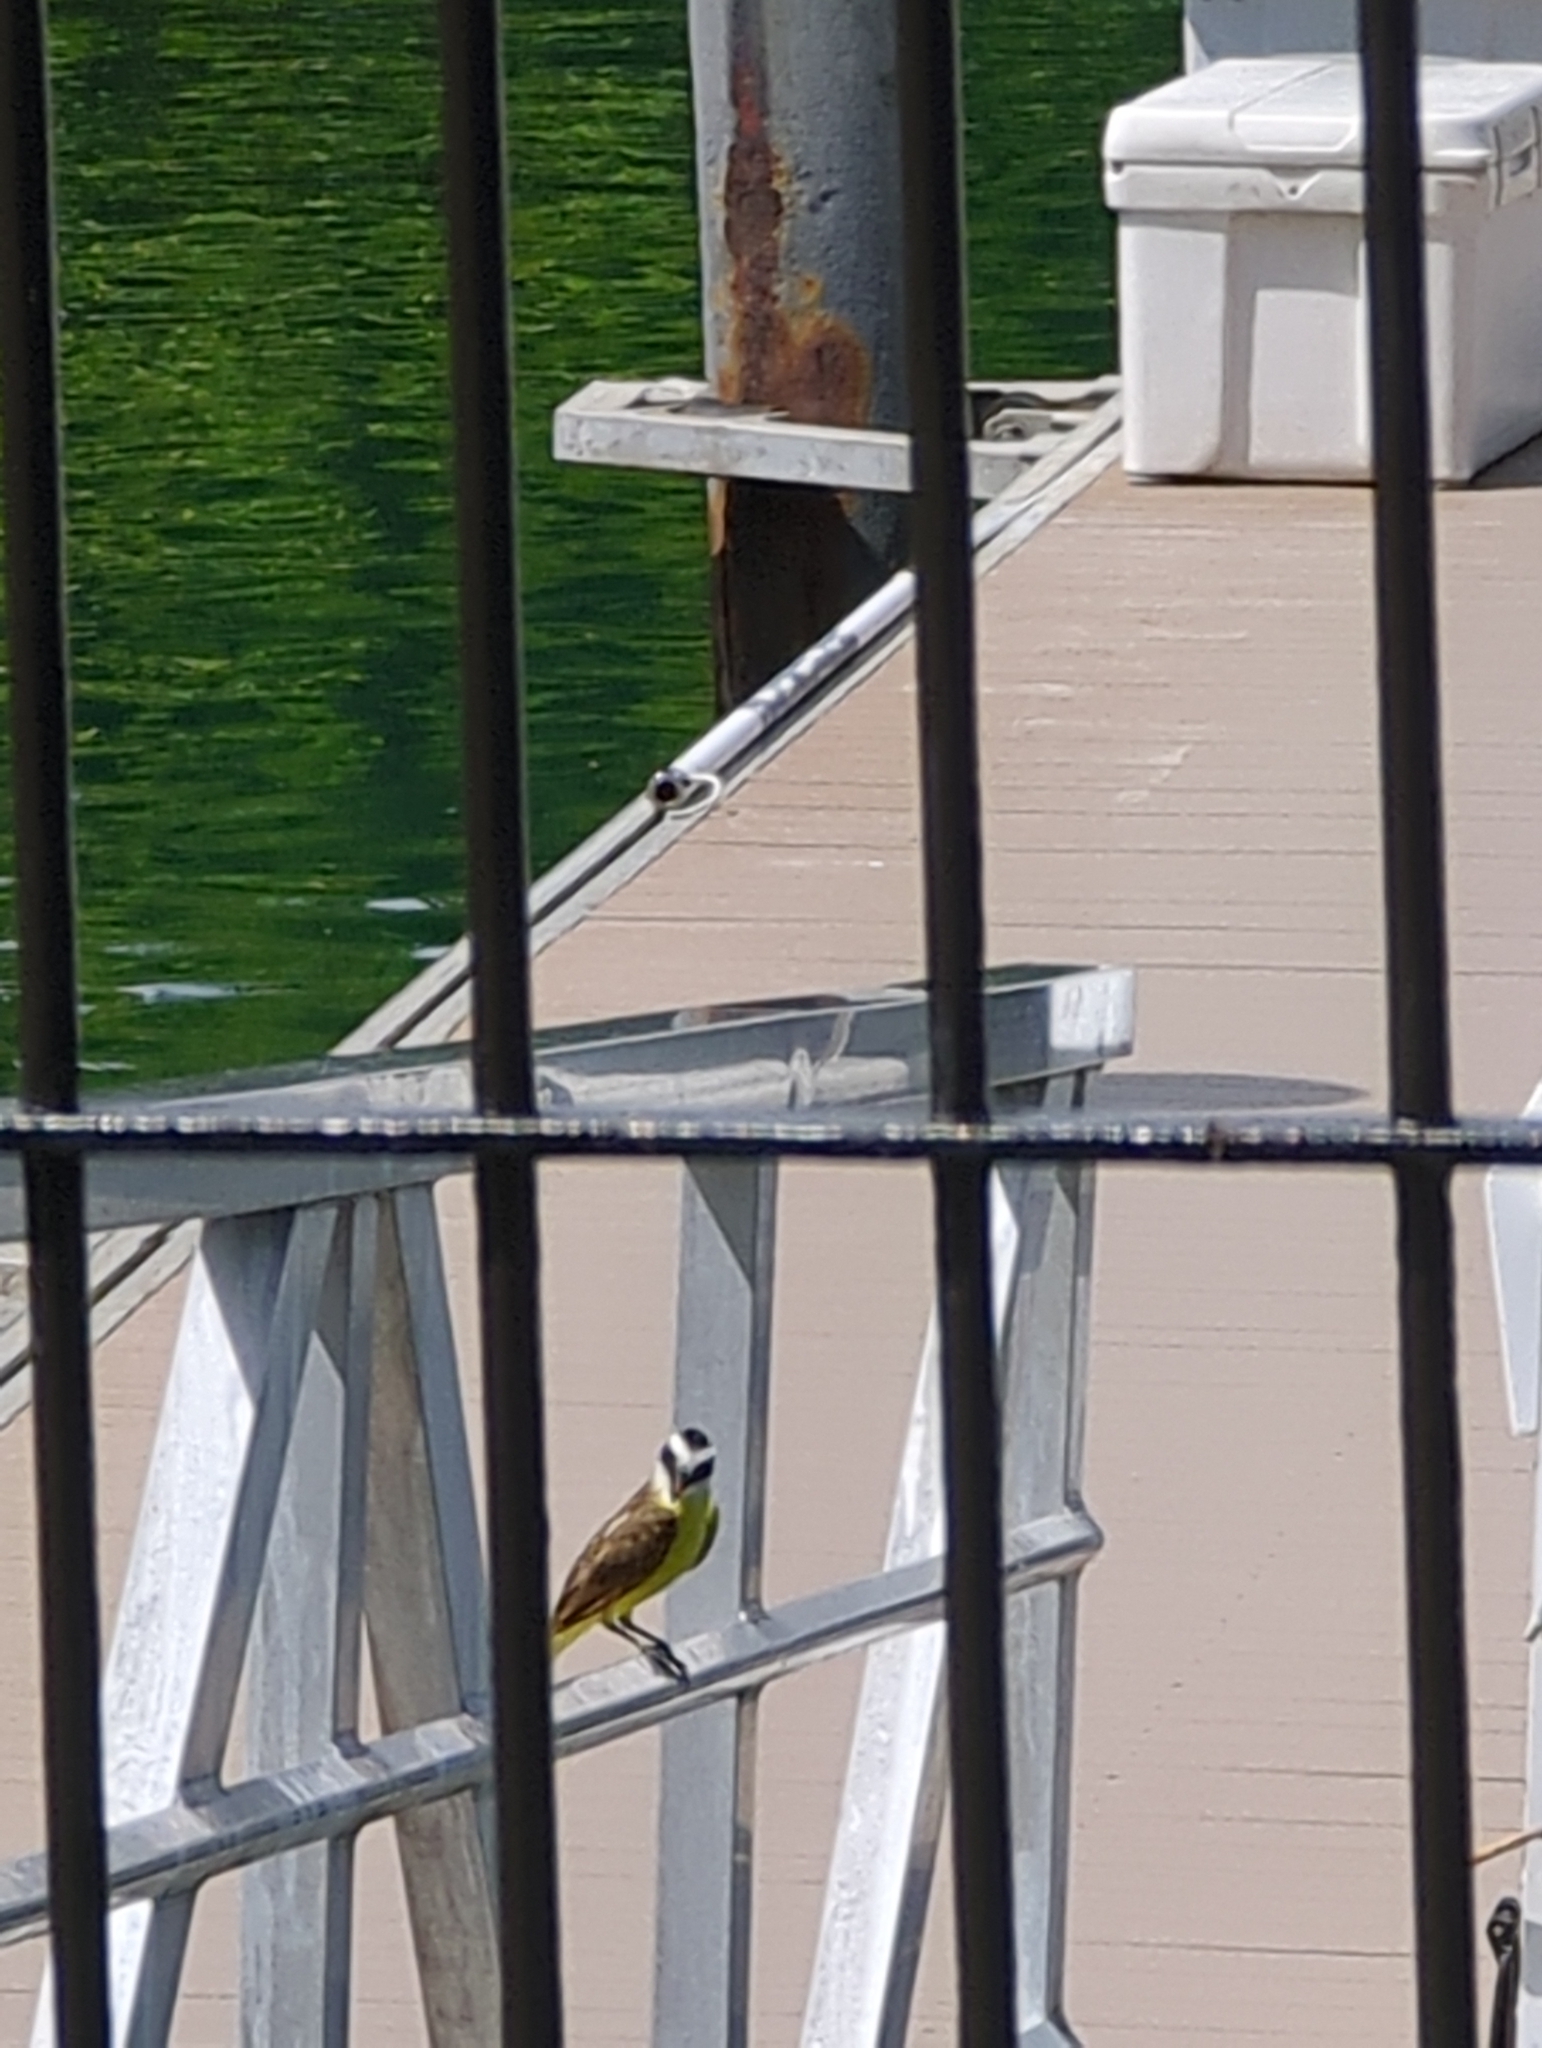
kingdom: Animalia
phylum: Chordata
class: Aves
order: Passeriformes
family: Tyrannidae
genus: Pitangus
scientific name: Pitangus sulphuratus
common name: Great kiskadee
